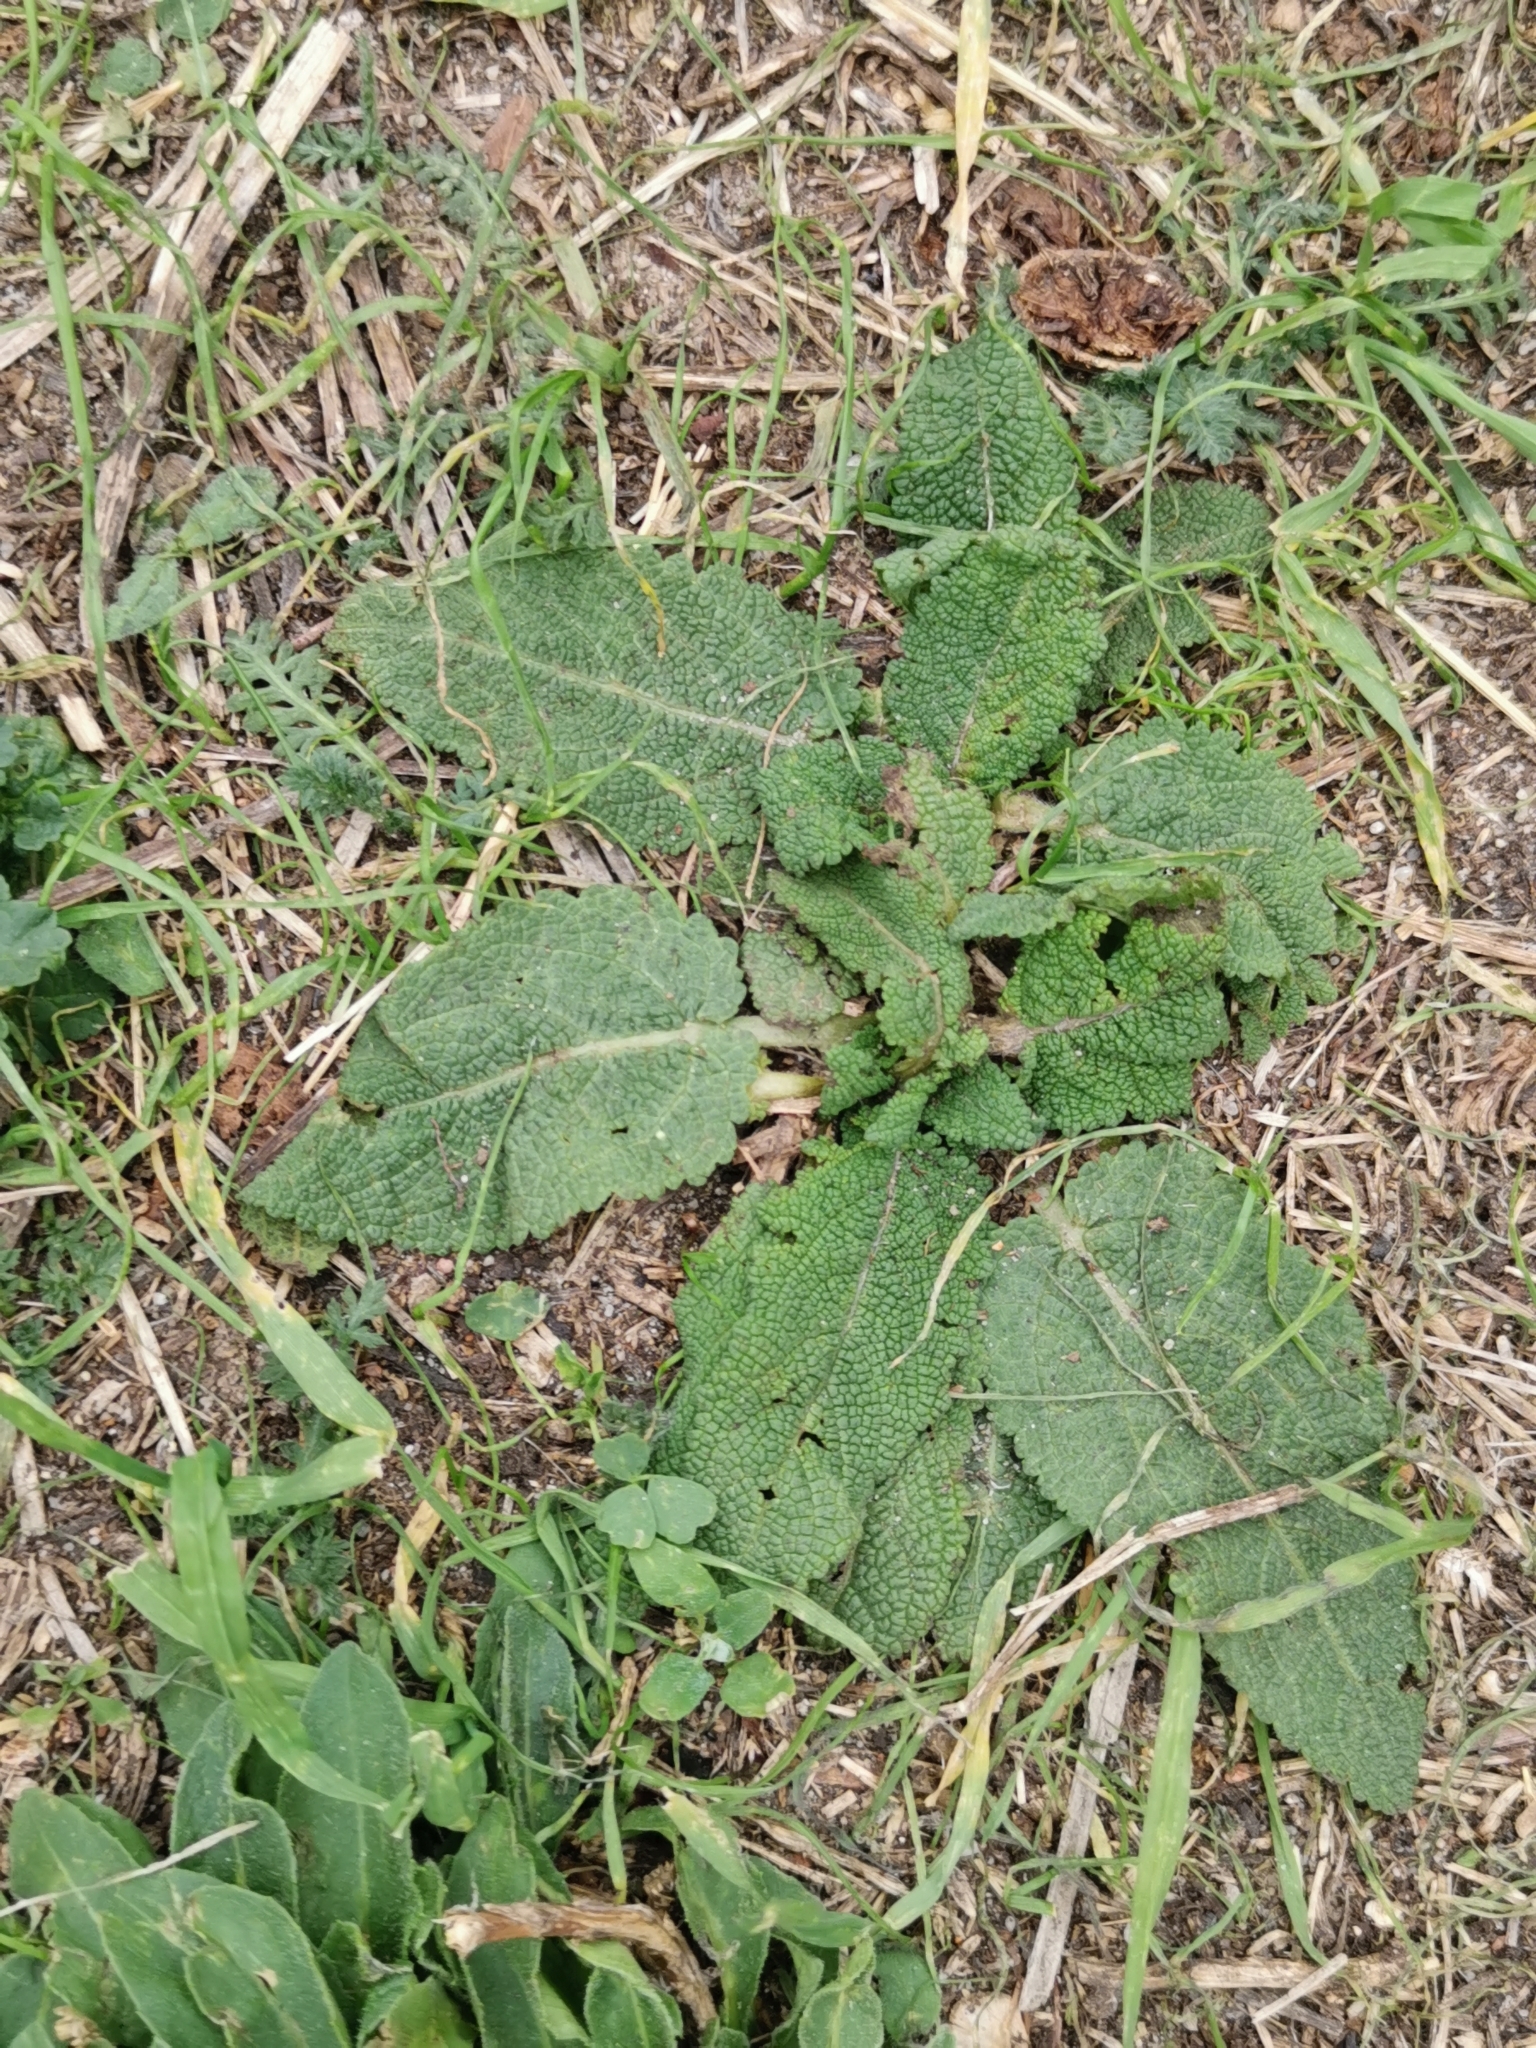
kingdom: Plantae
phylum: Tracheophyta
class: Magnoliopsida
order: Lamiales
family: Lamiaceae
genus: Salvia
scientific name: Salvia pratensis
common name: Meadow sage
